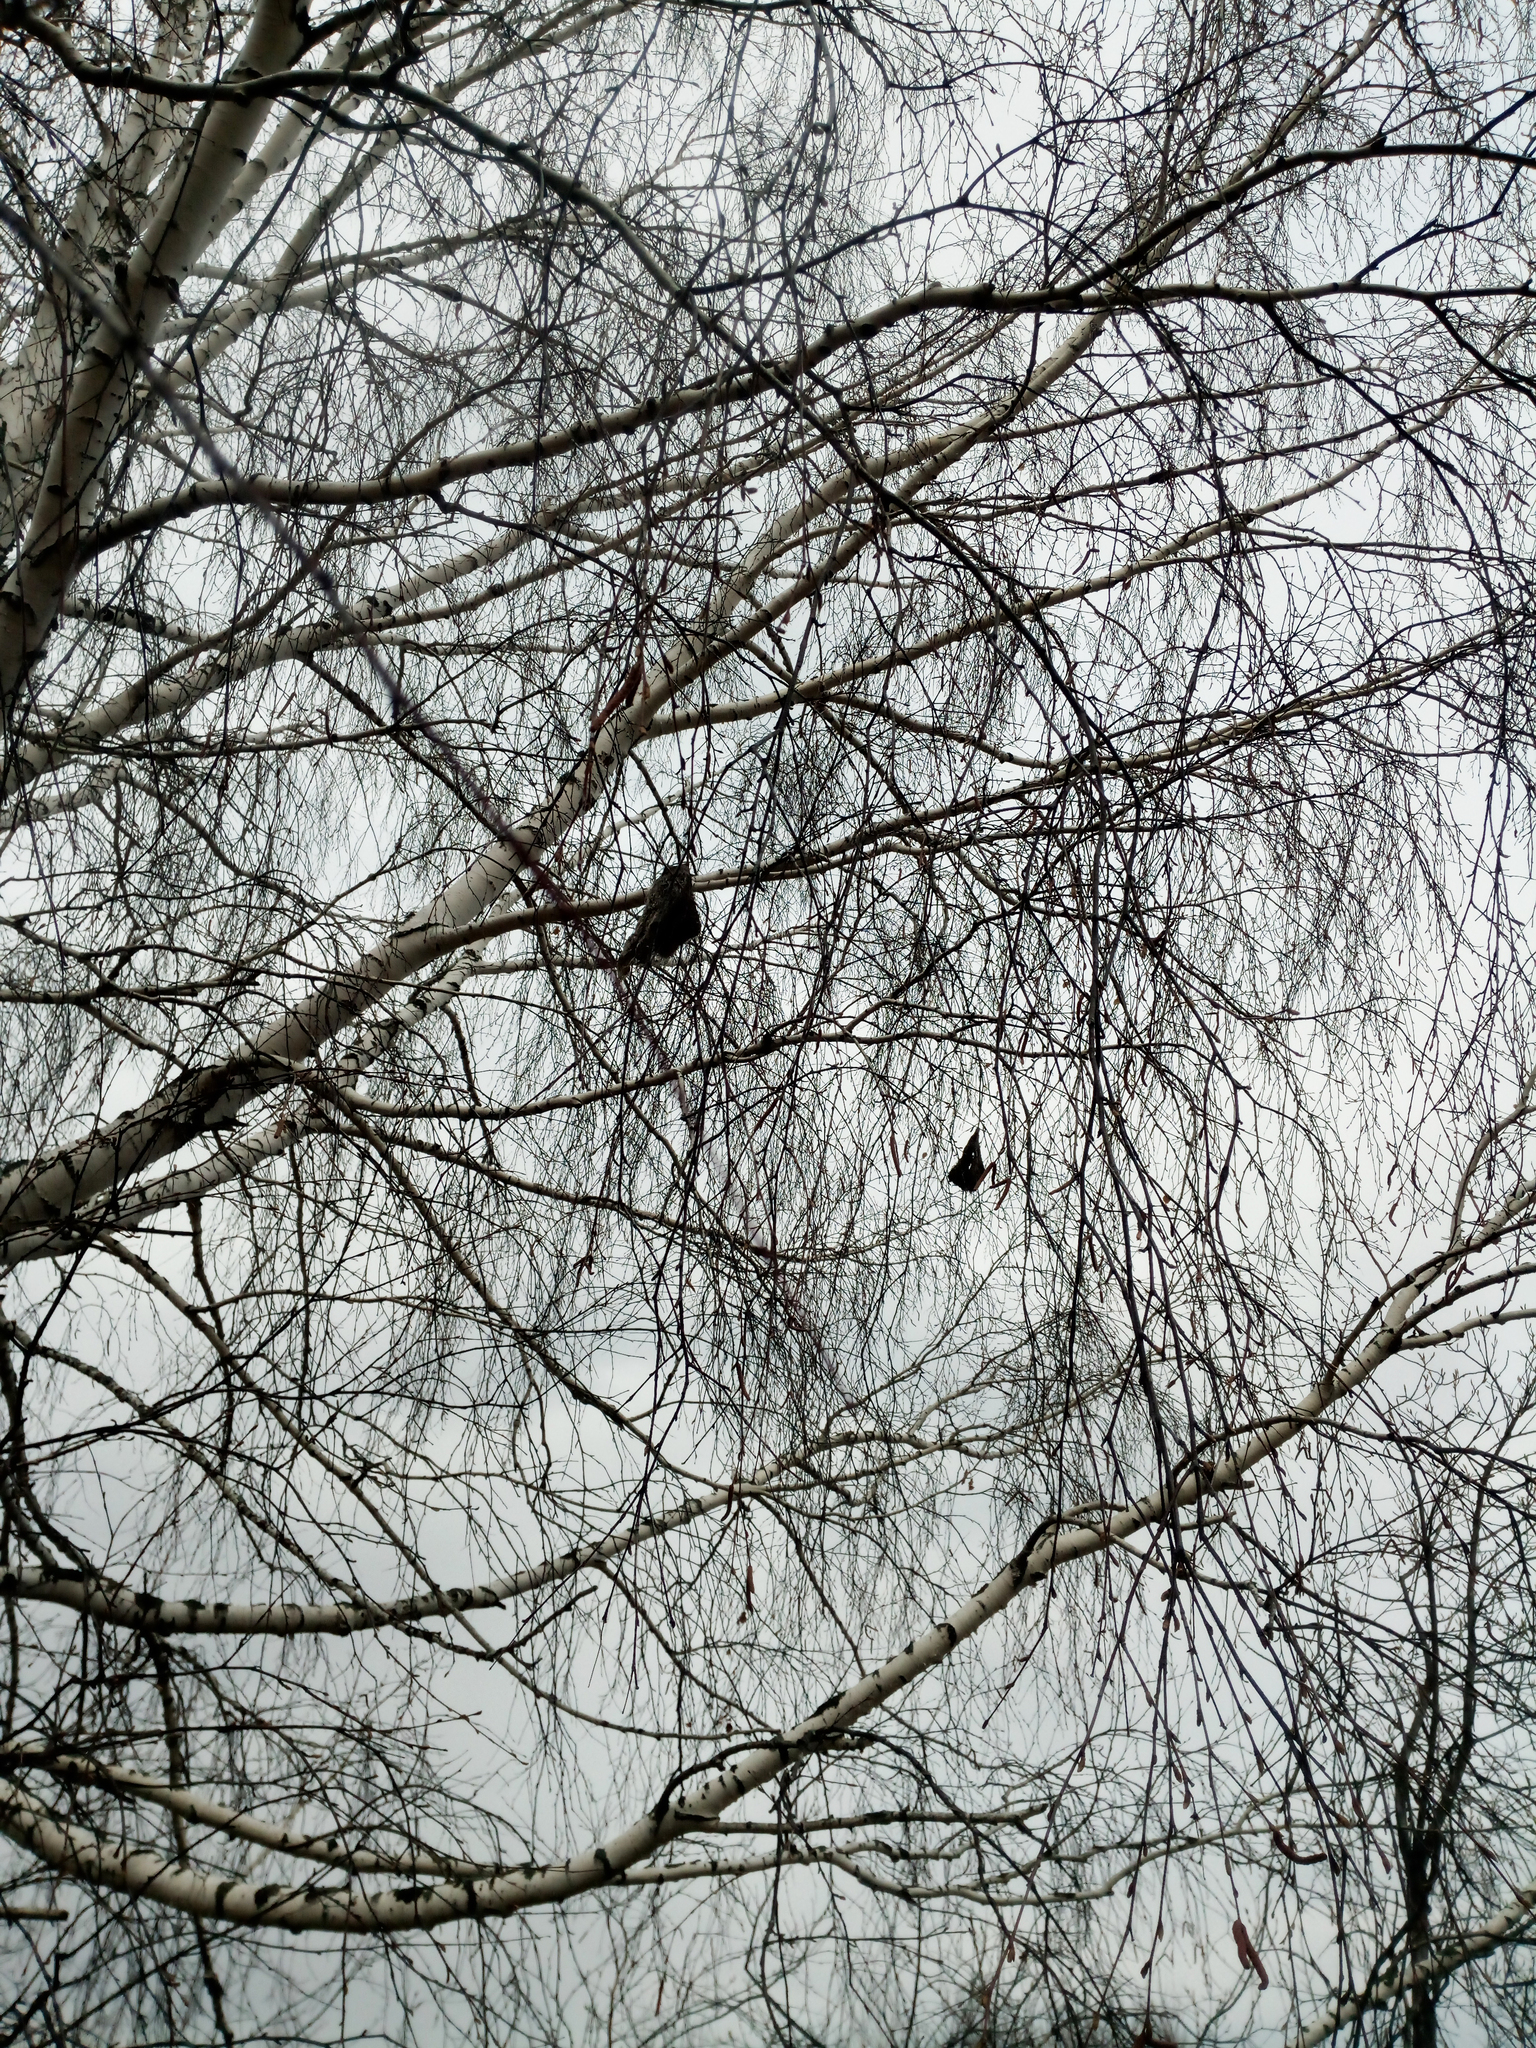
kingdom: Animalia
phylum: Chordata
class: Aves
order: Passeriformes
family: Remizidae
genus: Remiz
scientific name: Remiz pendulinus
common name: Eurasian penduline tit
